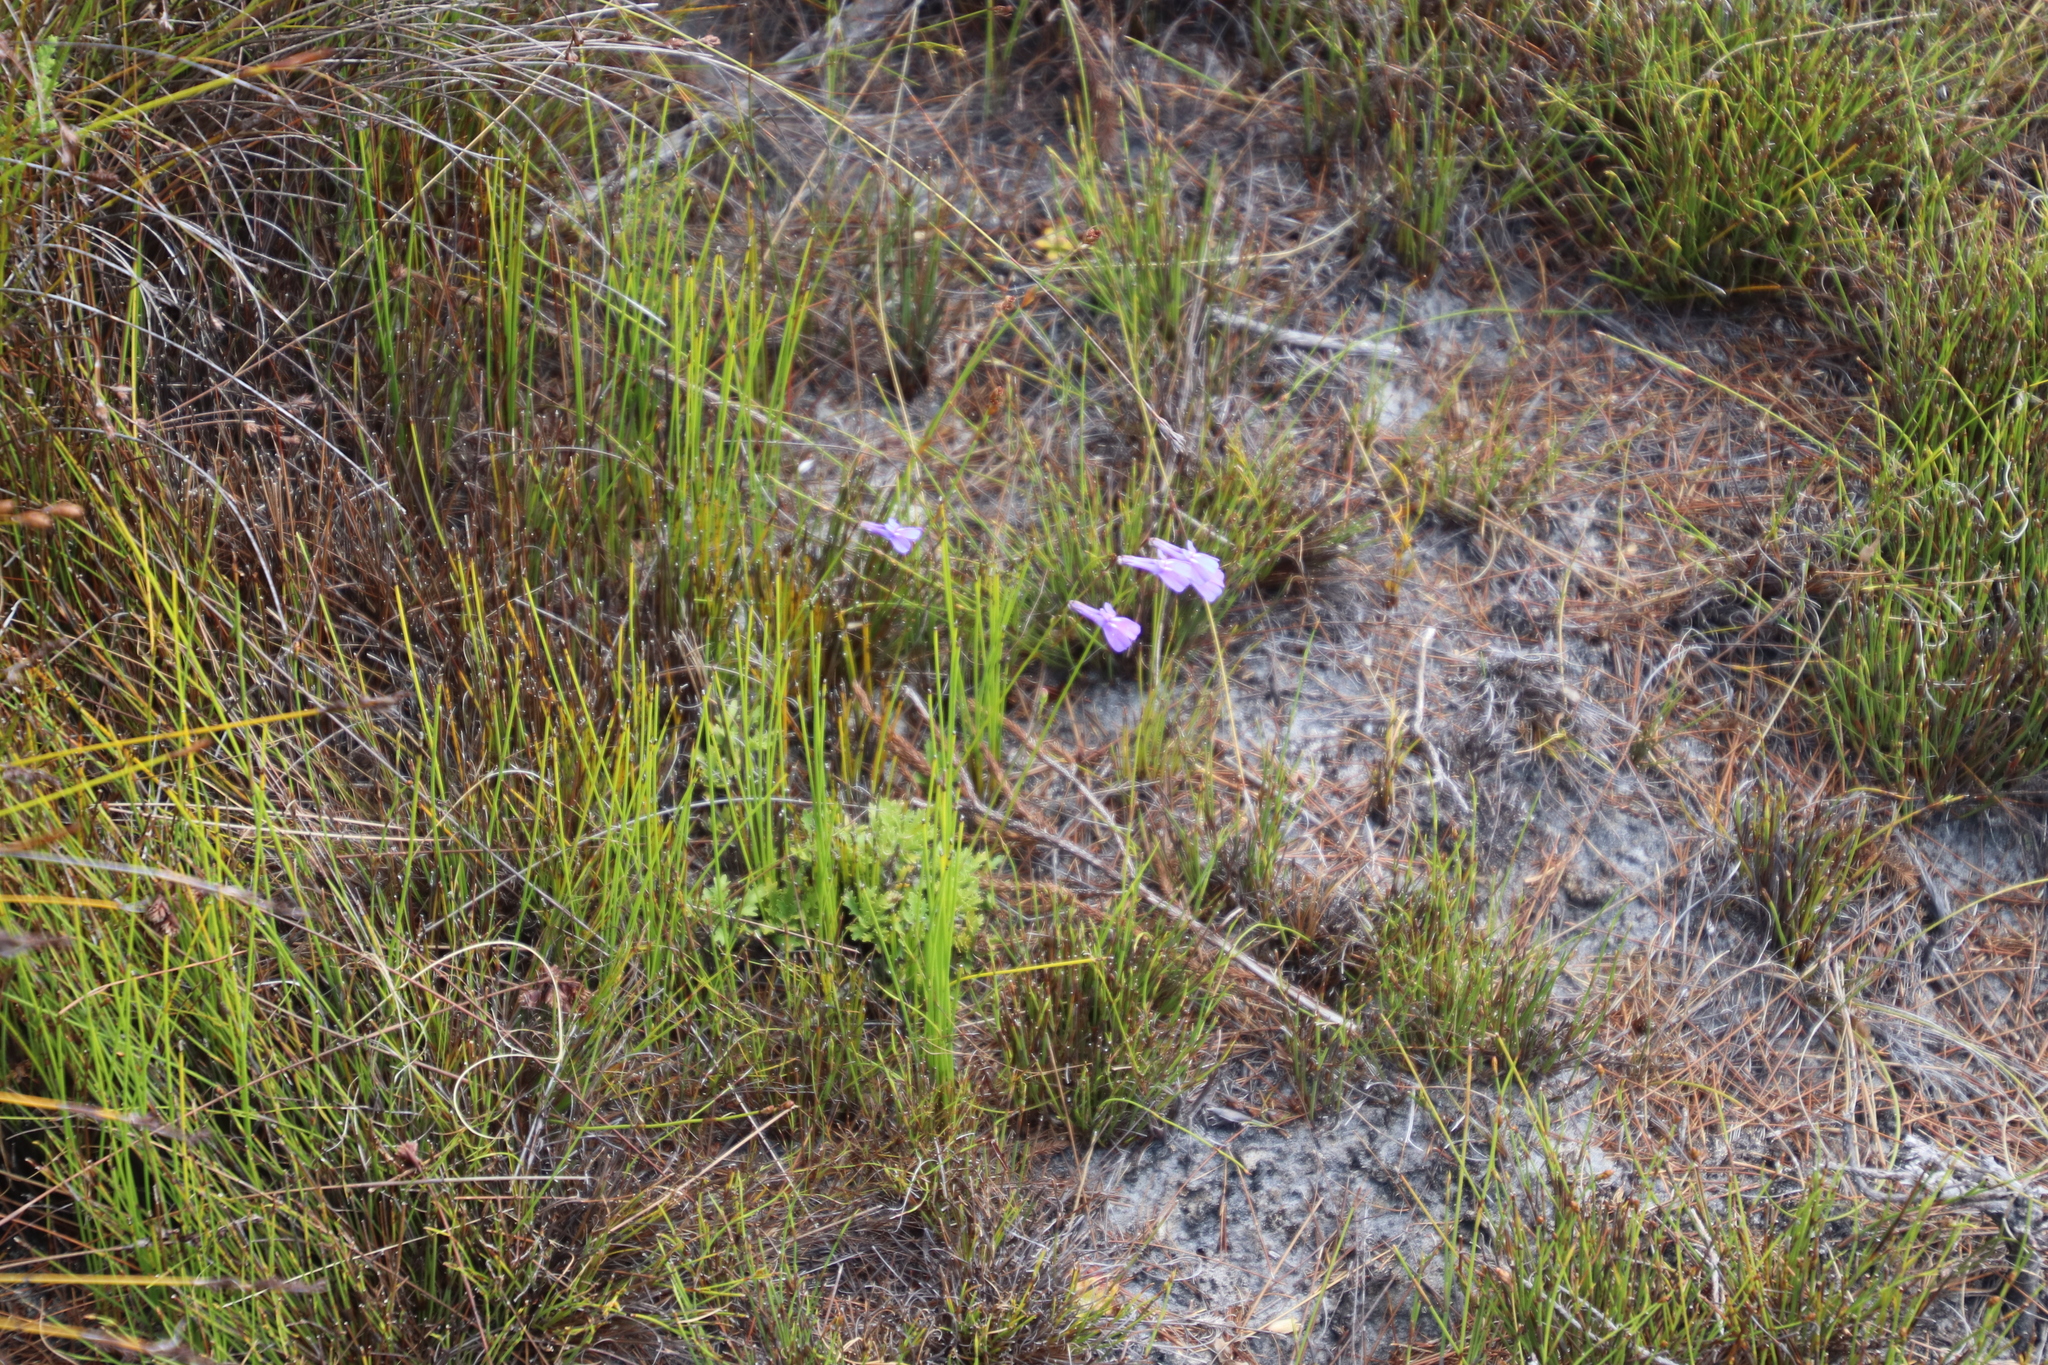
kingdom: Plantae
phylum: Tracheophyta
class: Magnoliopsida
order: Asterales
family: Campanulaceae
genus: Lobelia
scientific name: Lobelia coronopifolia
